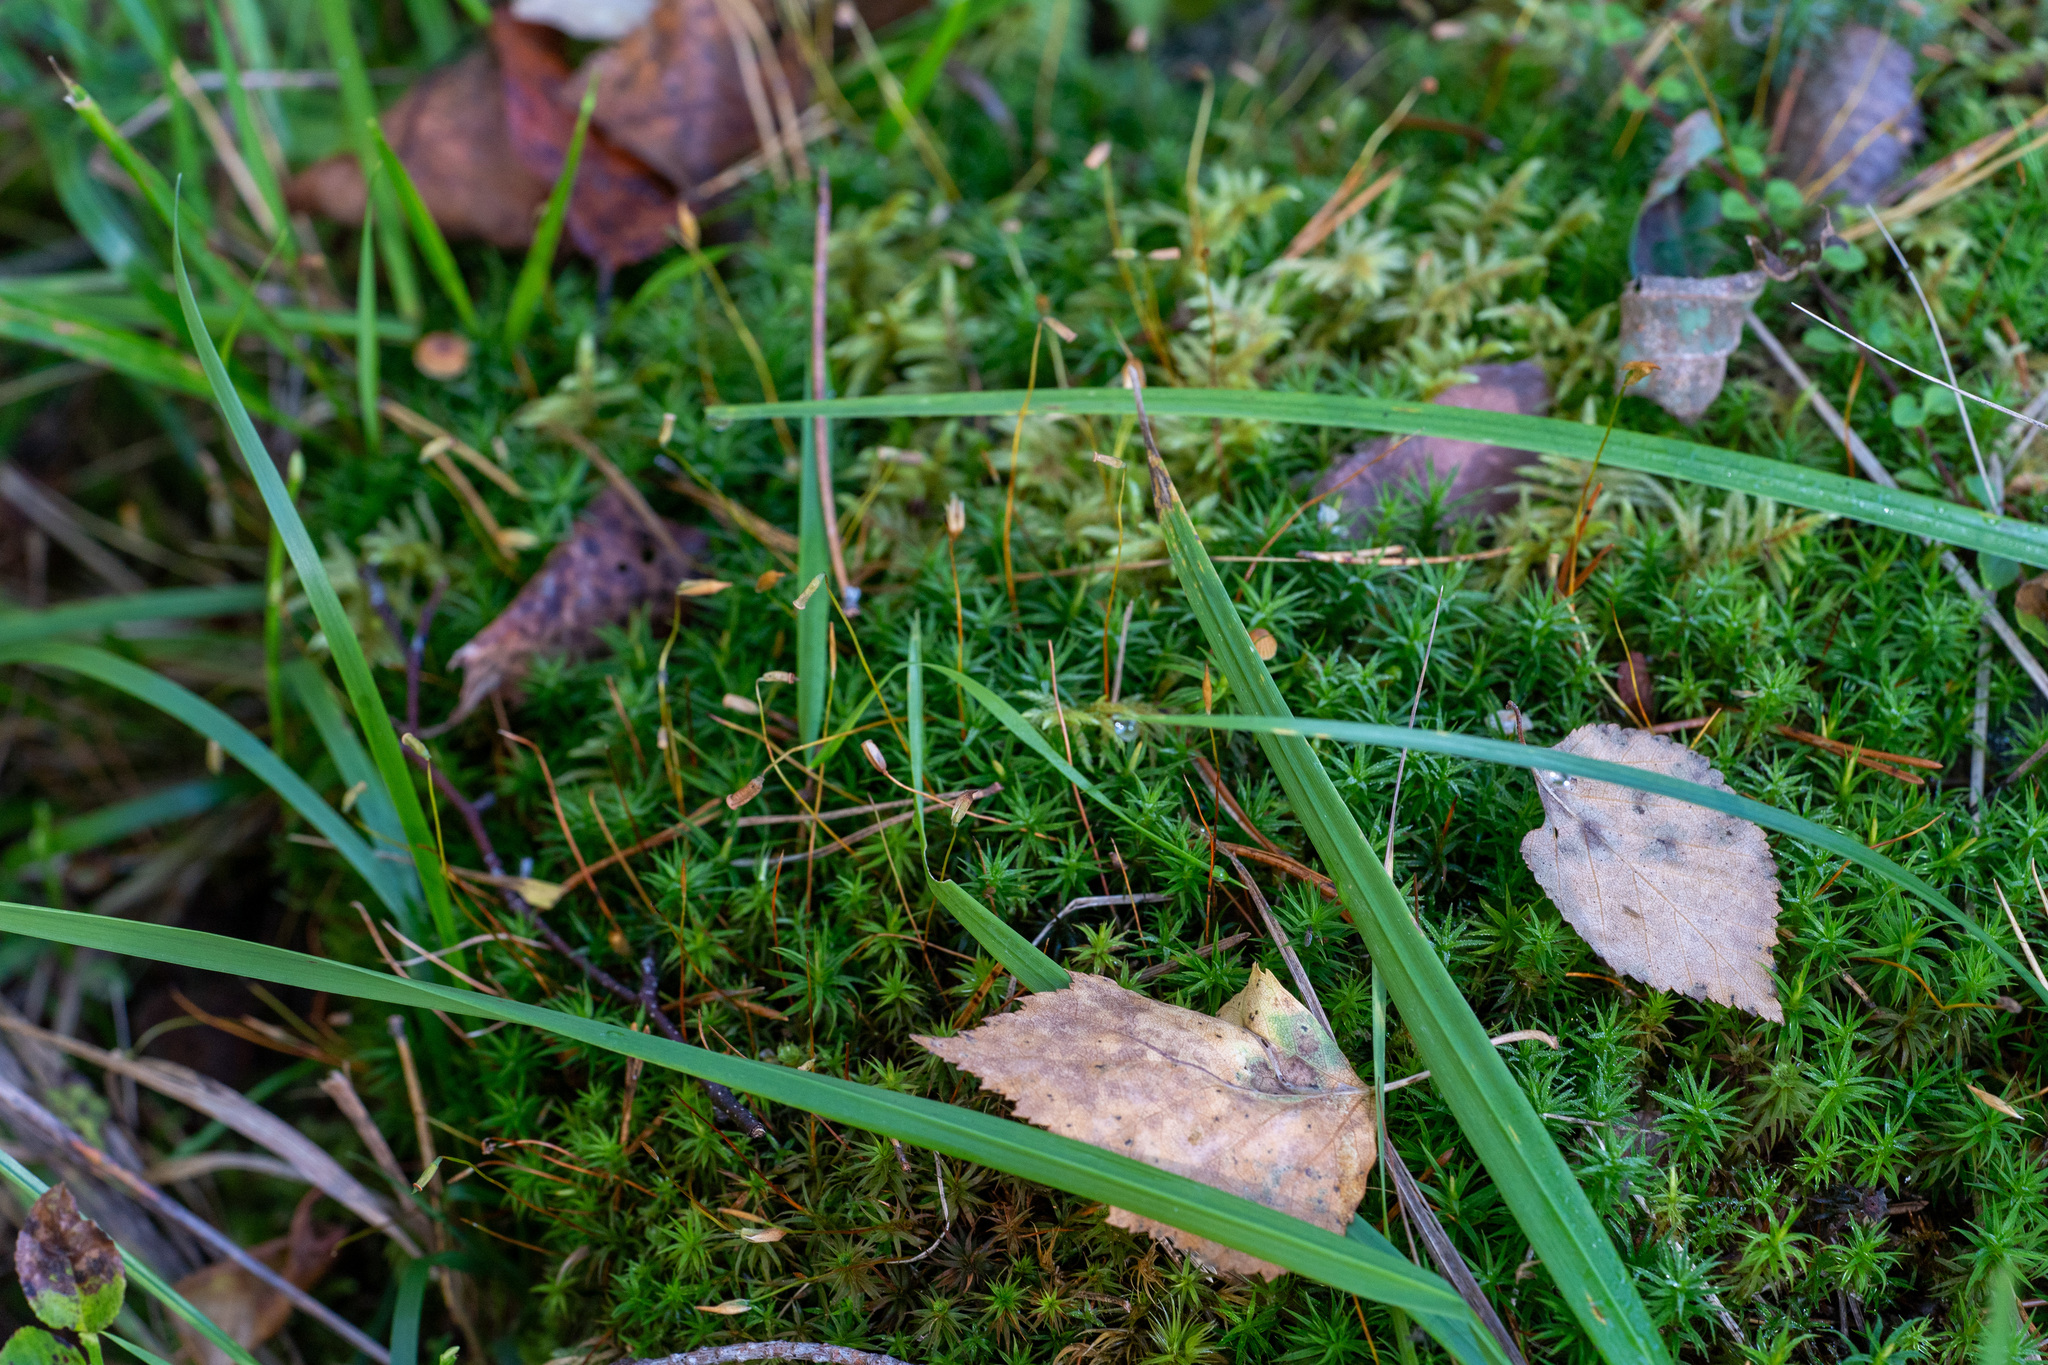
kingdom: Plantae
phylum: Bryophyta
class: Polytrichopsida
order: Polytrichales
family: Polytrichaceae
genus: Polytrichum
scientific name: Polytrichum formosum
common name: Bank haircap moss
